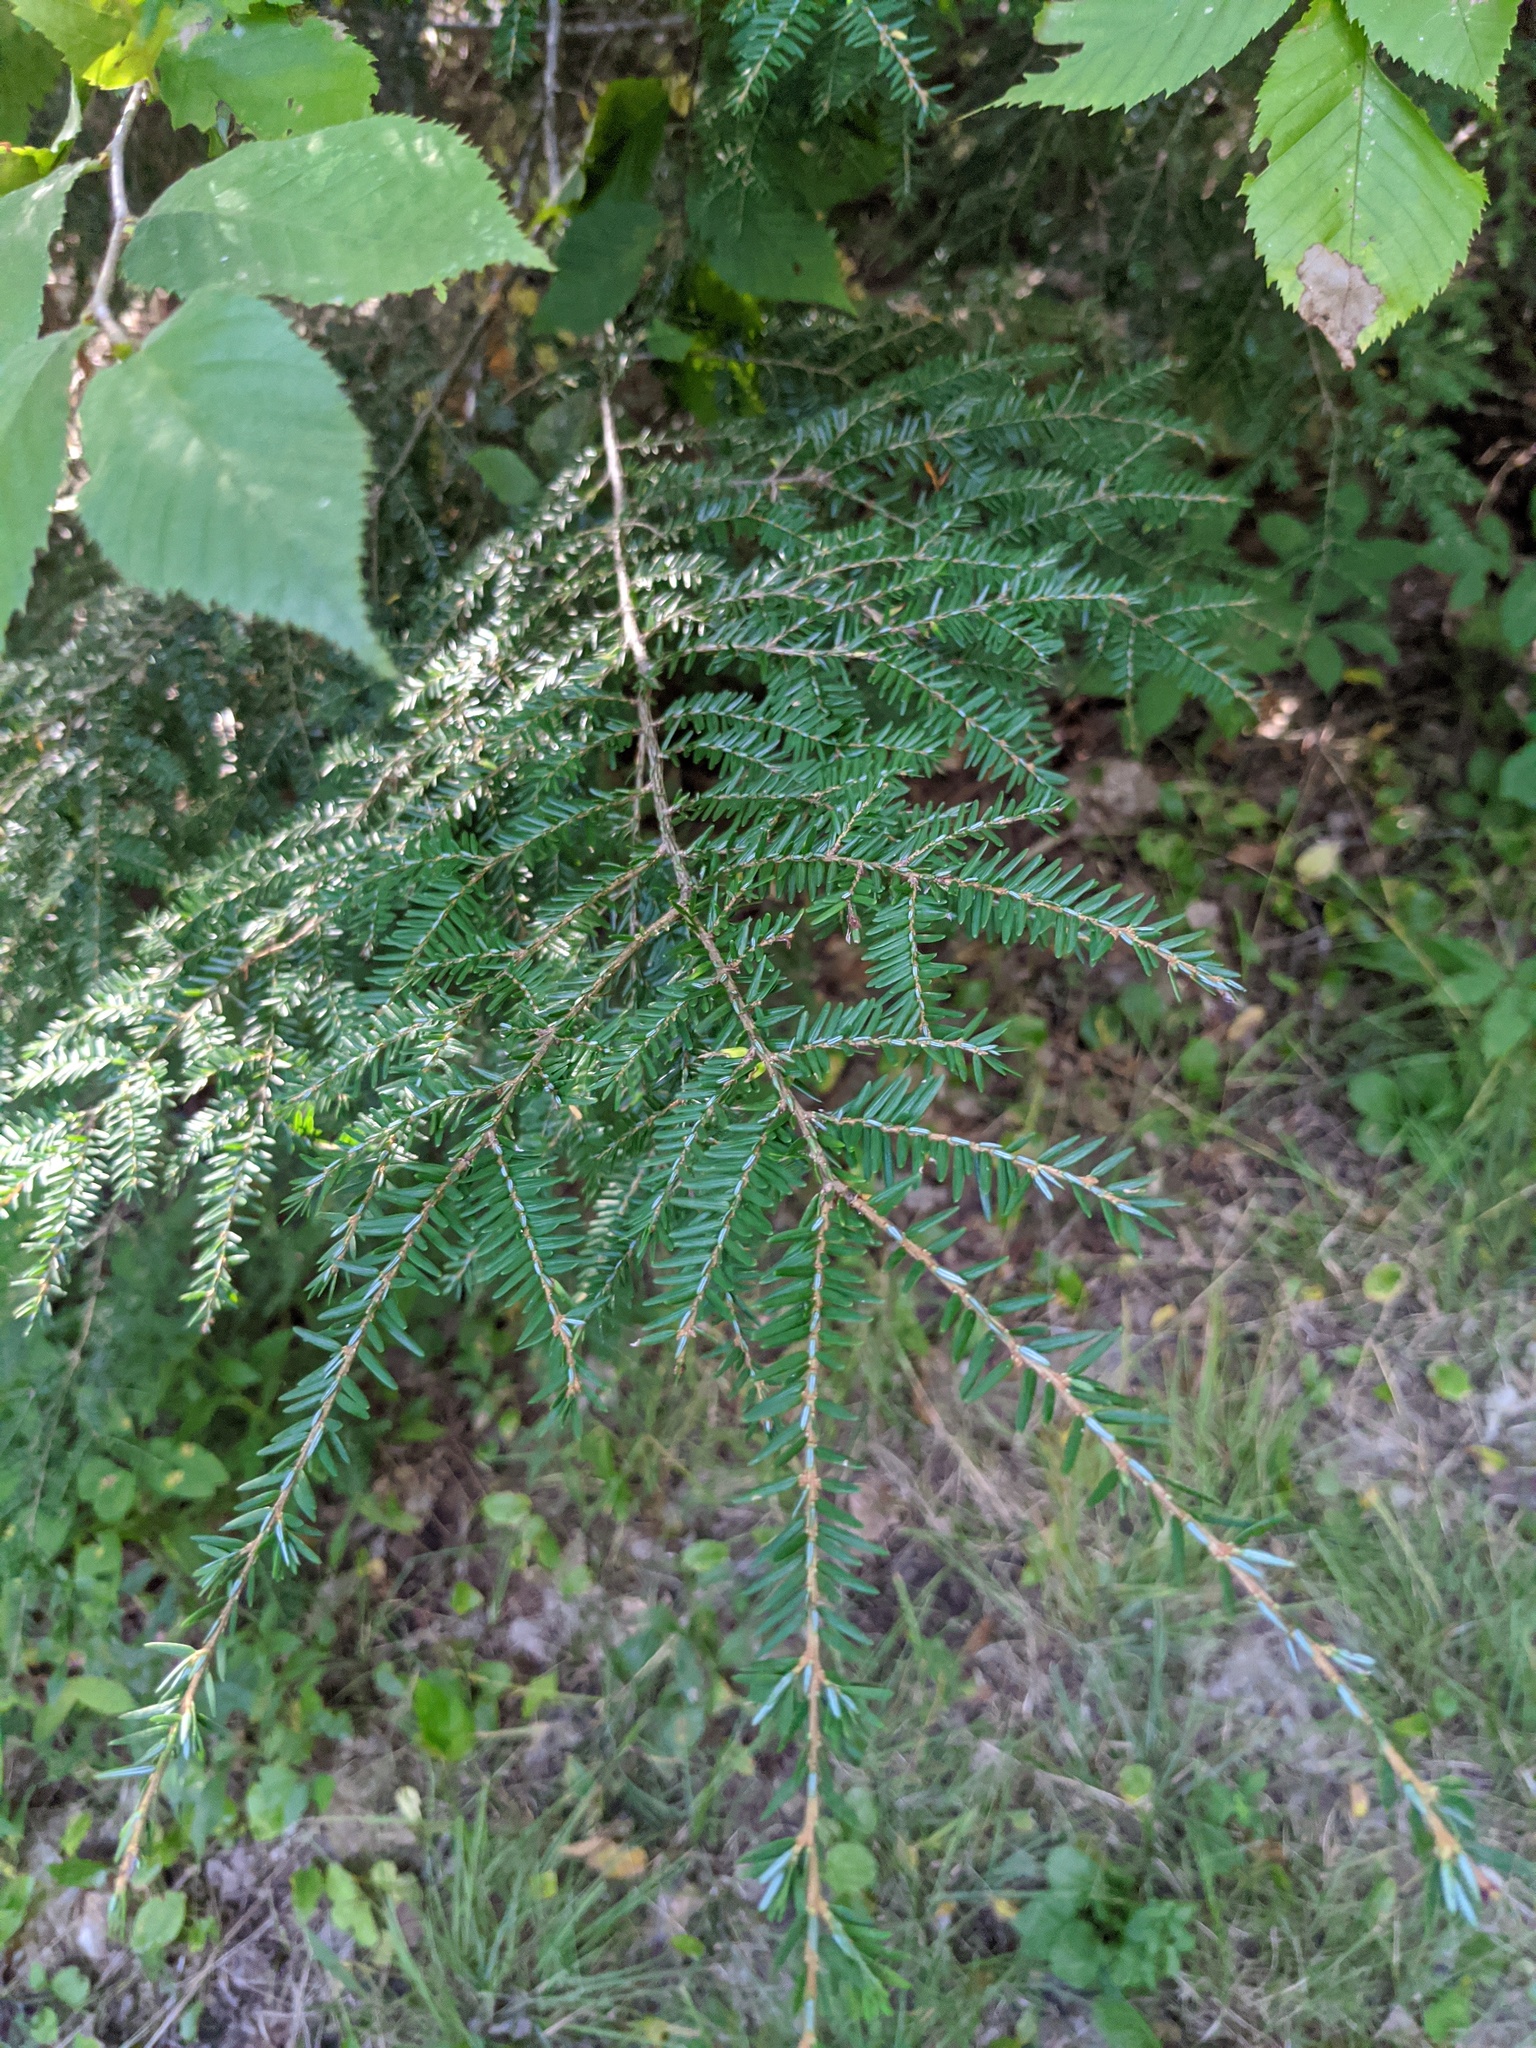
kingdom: Plantae
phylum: Tracheophyta
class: Pinopsida
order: Pinales
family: Pinaceae
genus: Tsuga
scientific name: Tsuga canadensis
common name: Eastern hemlock
